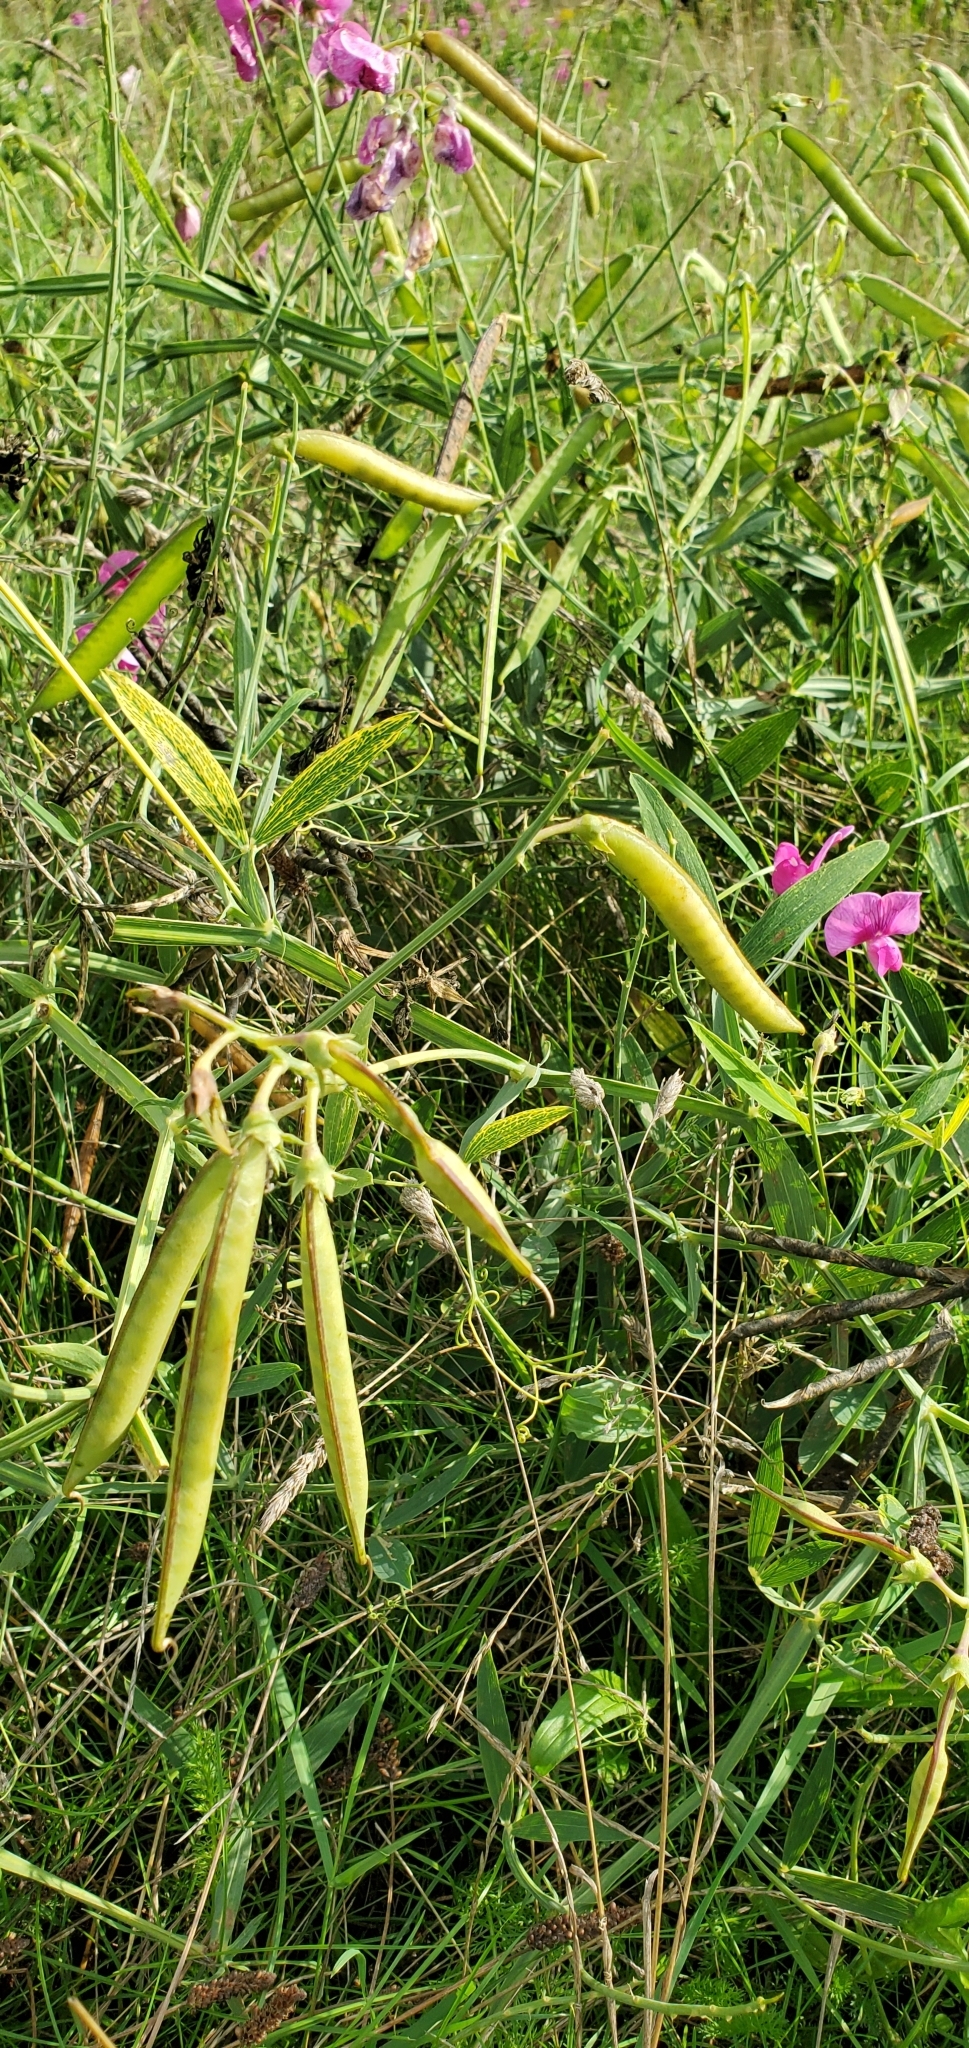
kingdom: Plantae
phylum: Tracheophyta
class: Magnoliopsida
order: Fabales
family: Fabaceae
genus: Lathyrus
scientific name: Lathyrus latifolius
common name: Perennial pea
